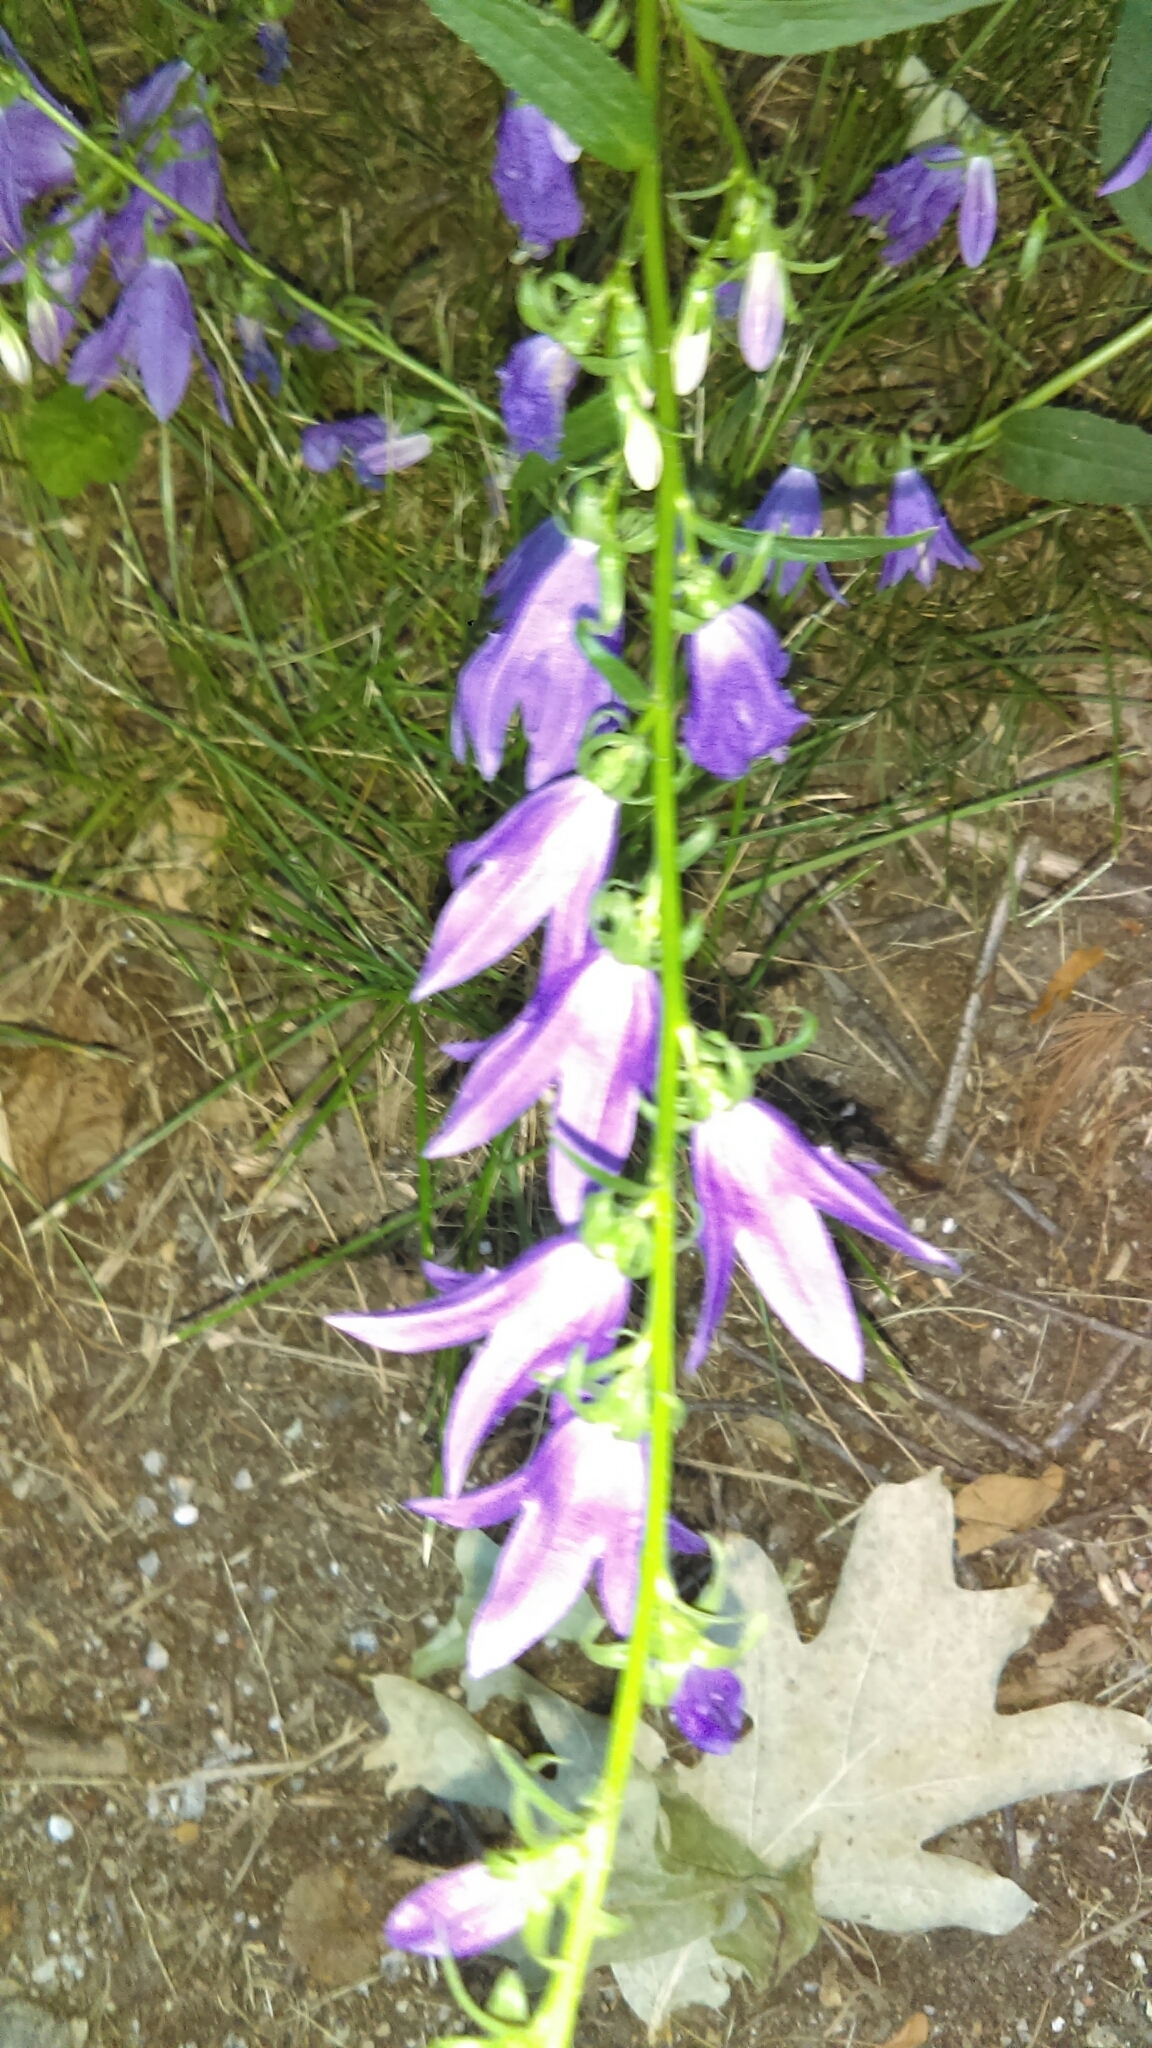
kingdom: Plantae
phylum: Tracheophyta
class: Magnoliopsida
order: Asterales
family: Campanulaceae
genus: Campanula
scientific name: Campanula rapunculoides
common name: Creeping bellflower
